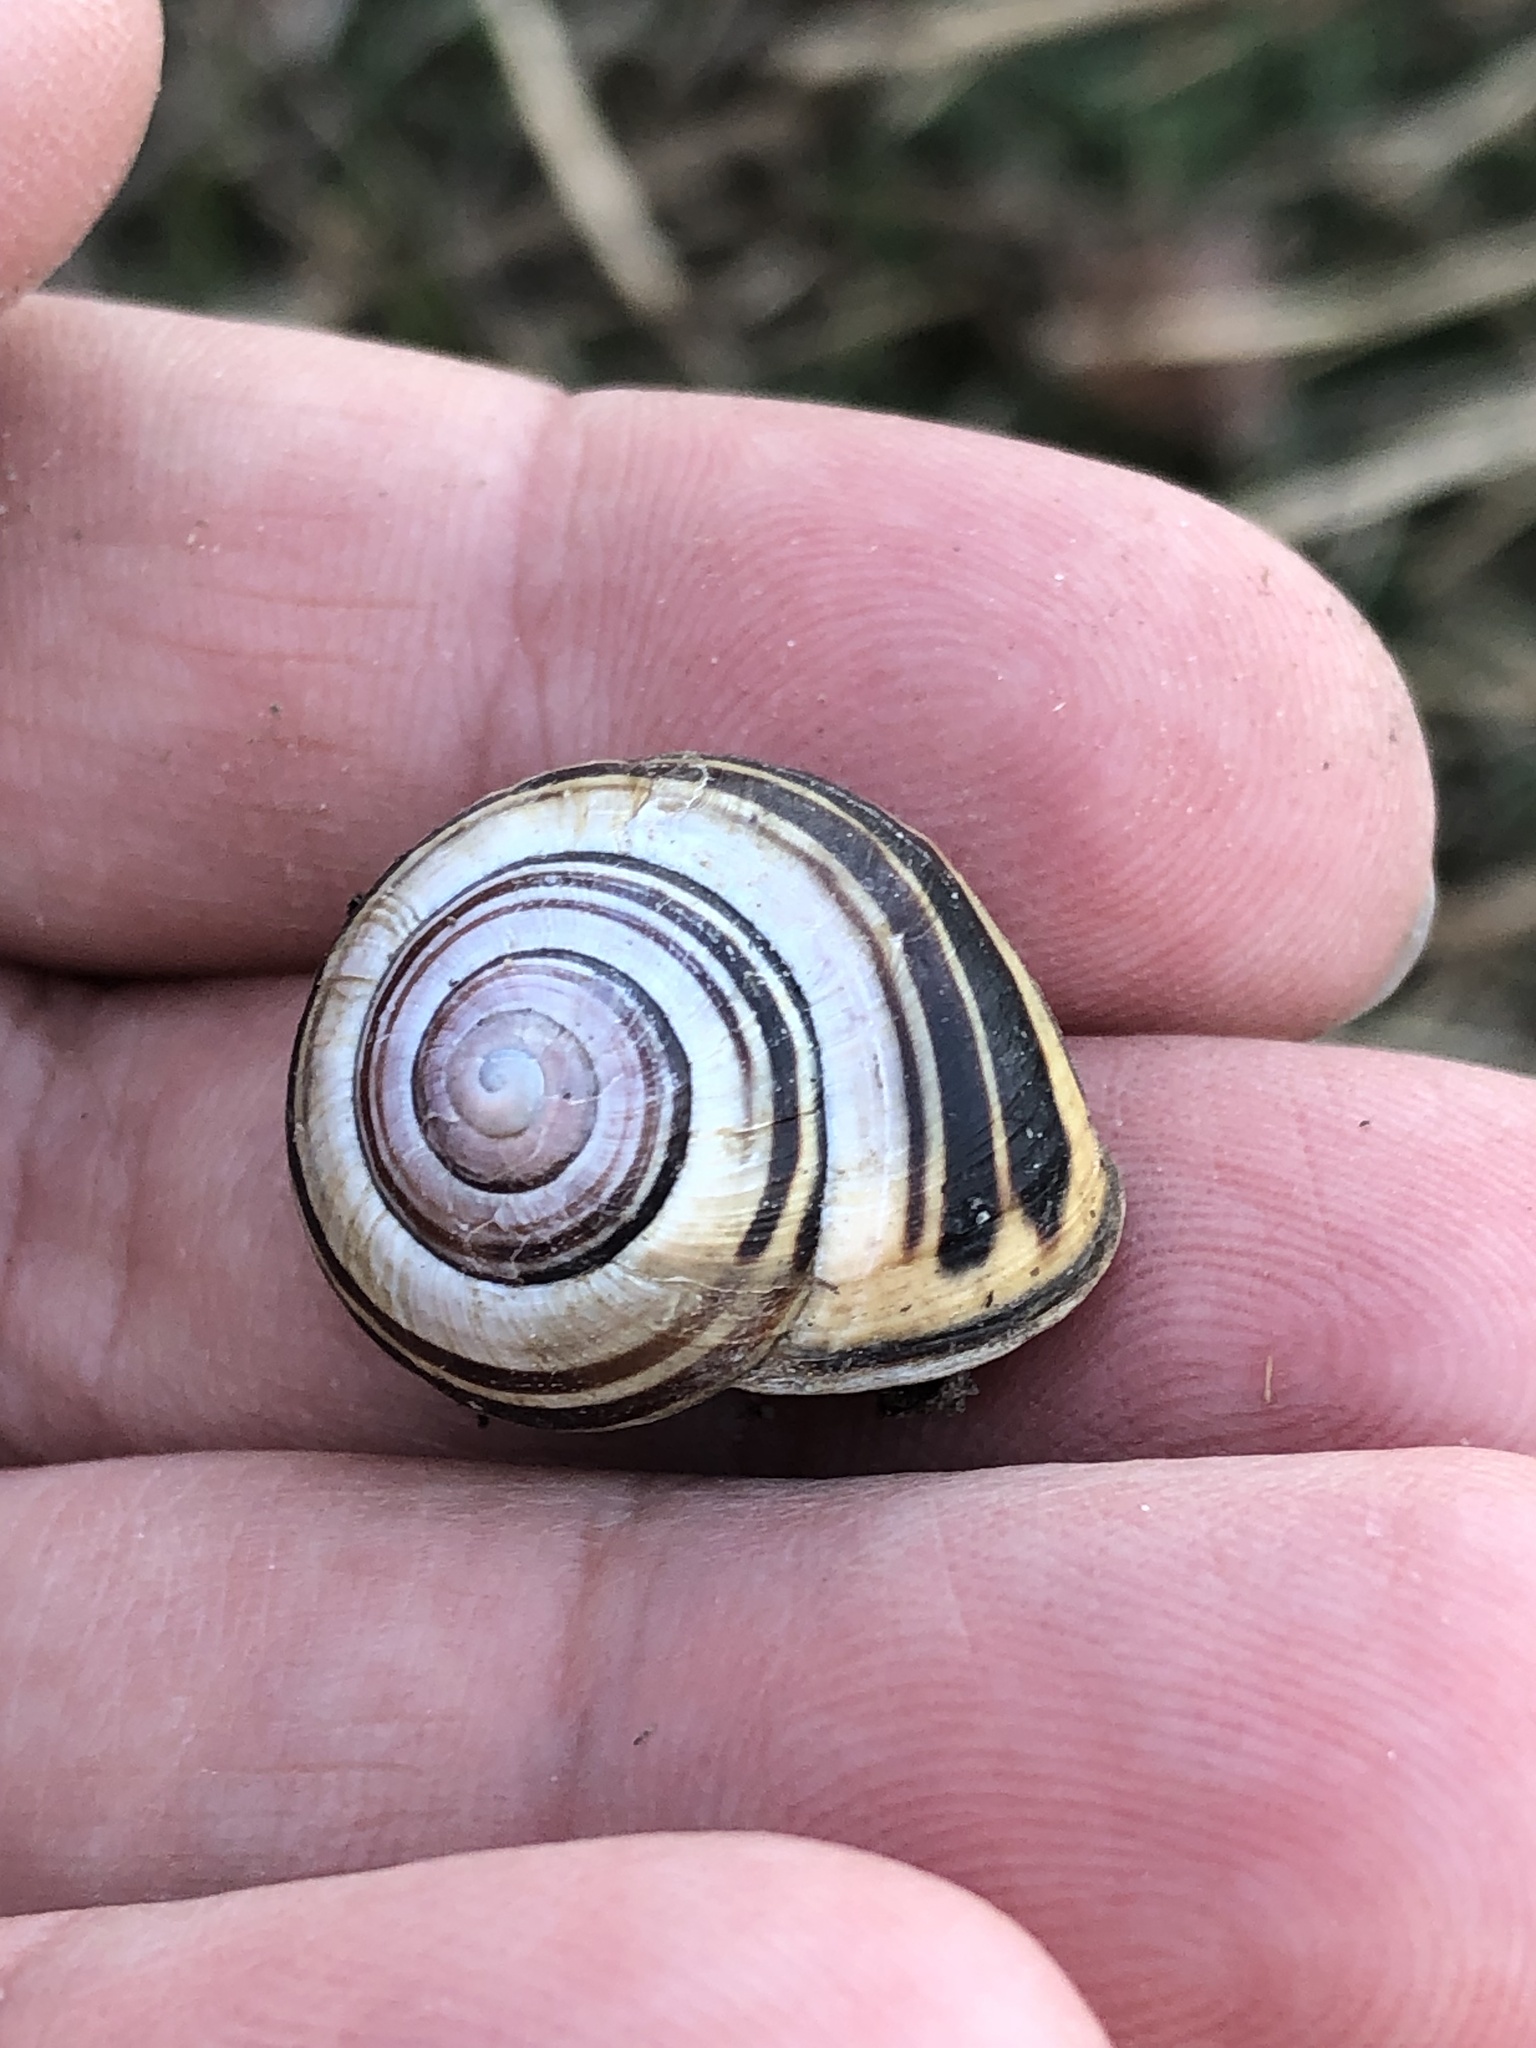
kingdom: Animalia
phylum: Mollusca
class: Gastropoda
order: Stylommatophora
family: Helicidae
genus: Cepaea
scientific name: Cepaea nemoralis
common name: Grovesnail
